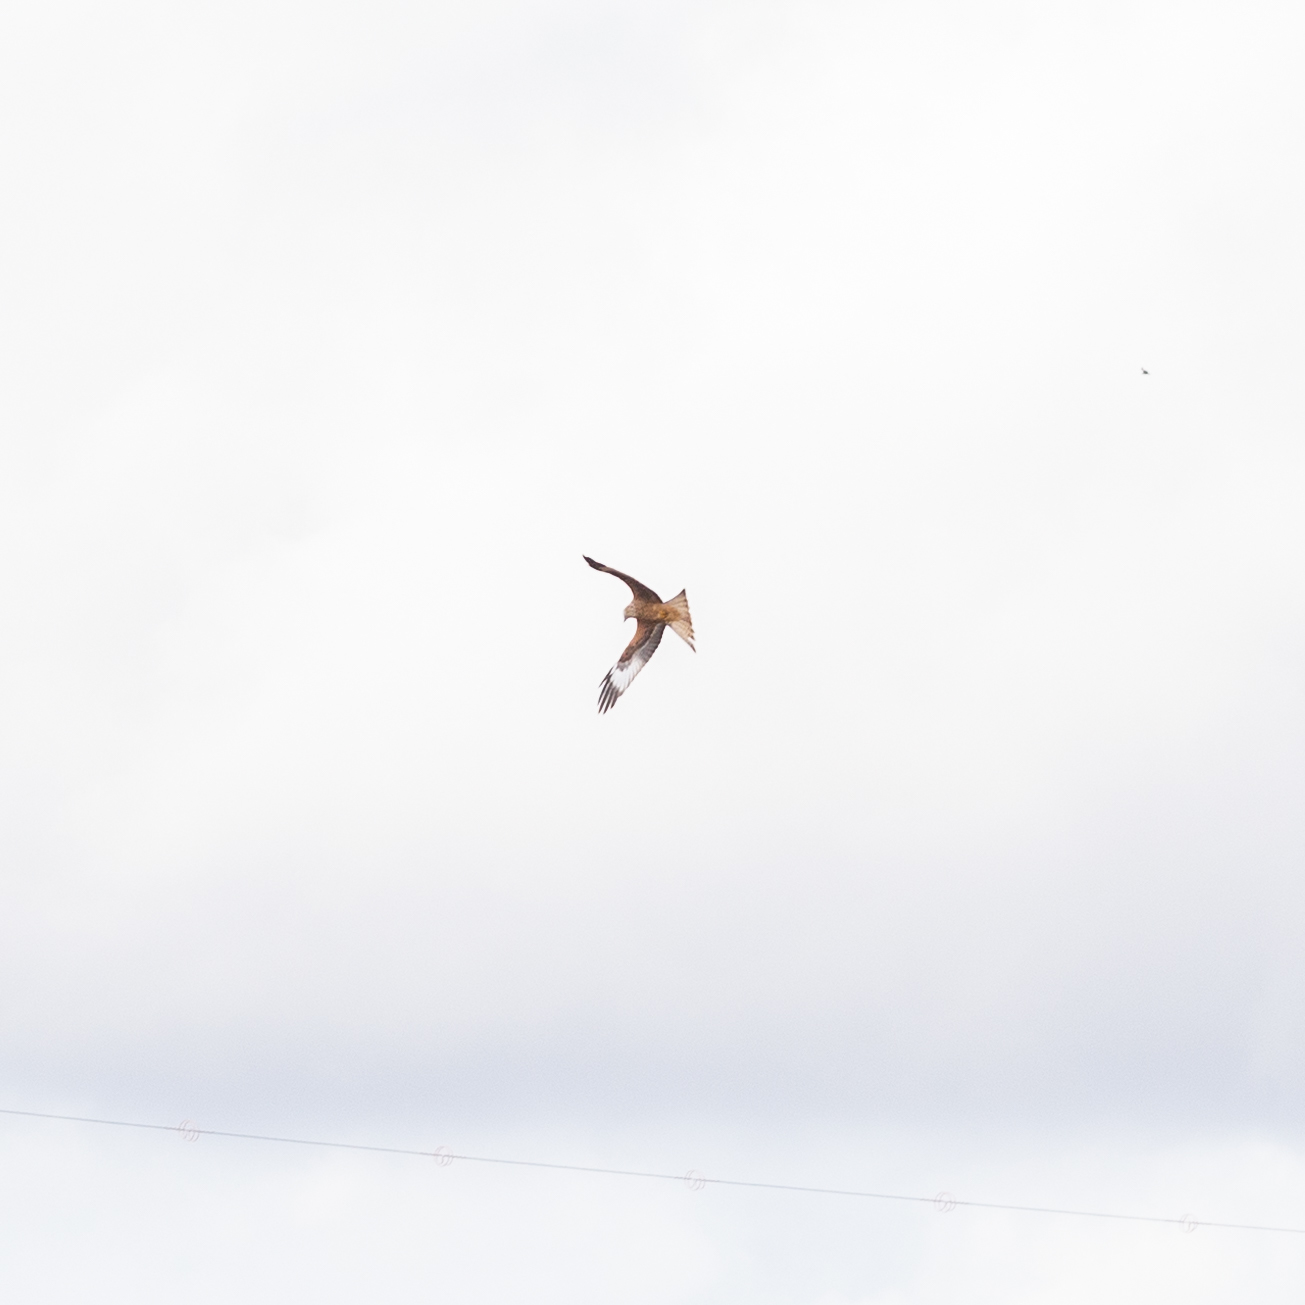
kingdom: Animalia
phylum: Chordata
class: Aves
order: Accipitriformes
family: Accipitridae
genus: Milvus
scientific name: Milvus milvus
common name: Red kite
